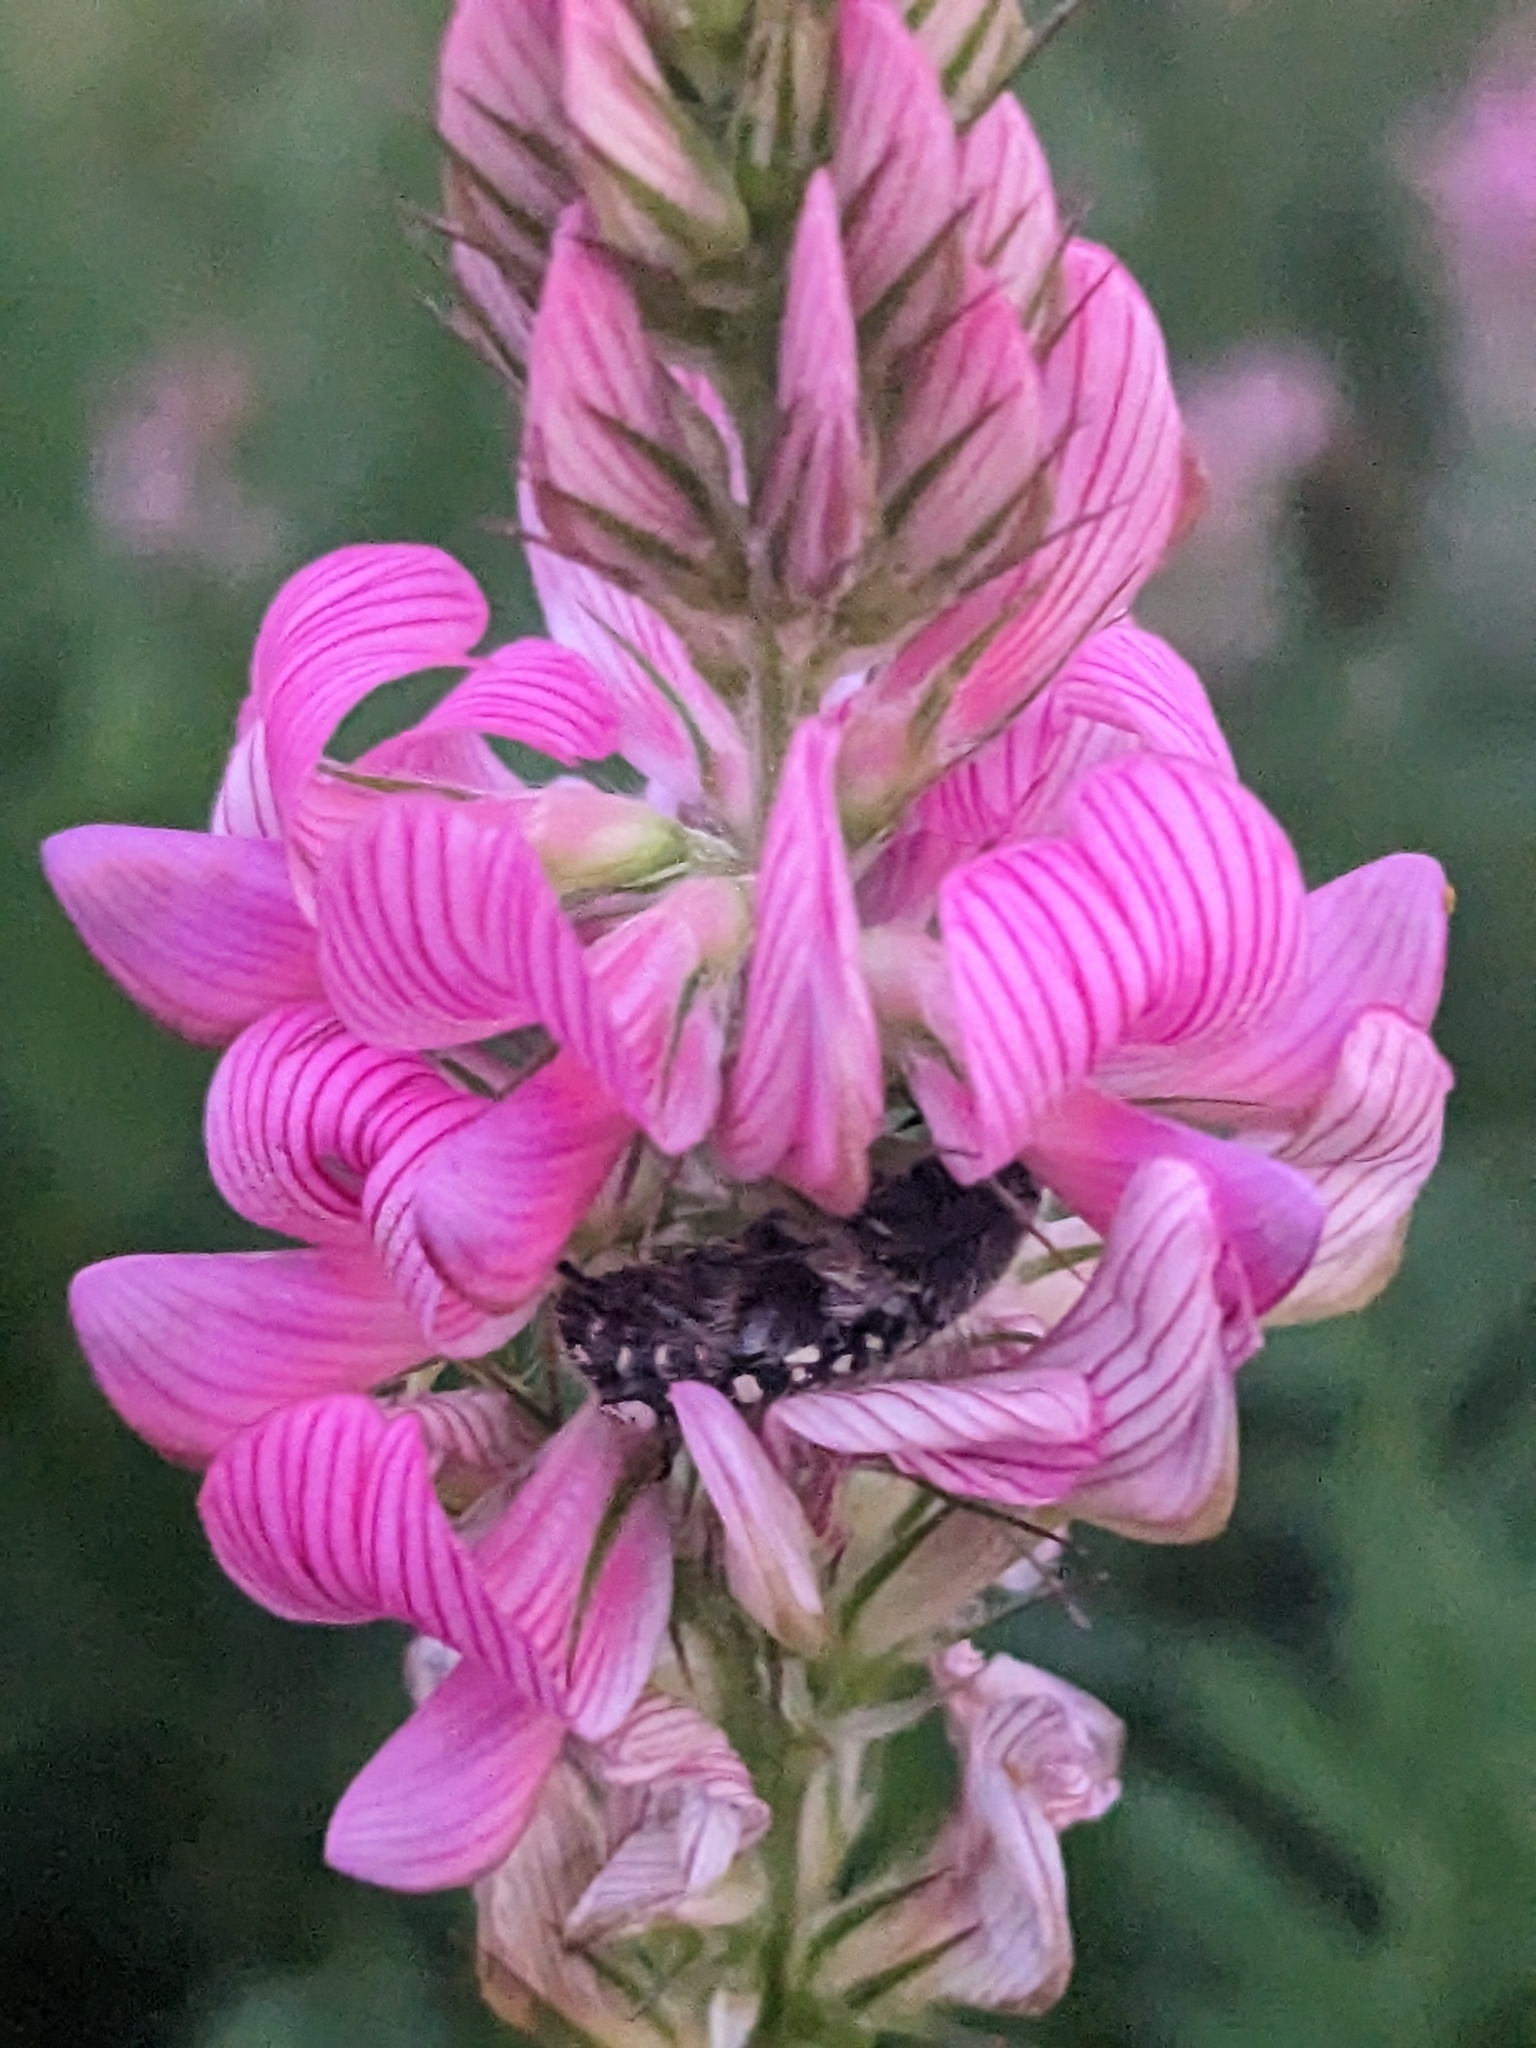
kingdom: Animalia
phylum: Arthropoda
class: Insecta
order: Coleoptera
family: Scarabaeidae
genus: Oxythyrea
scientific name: Oxythyrea funesta
